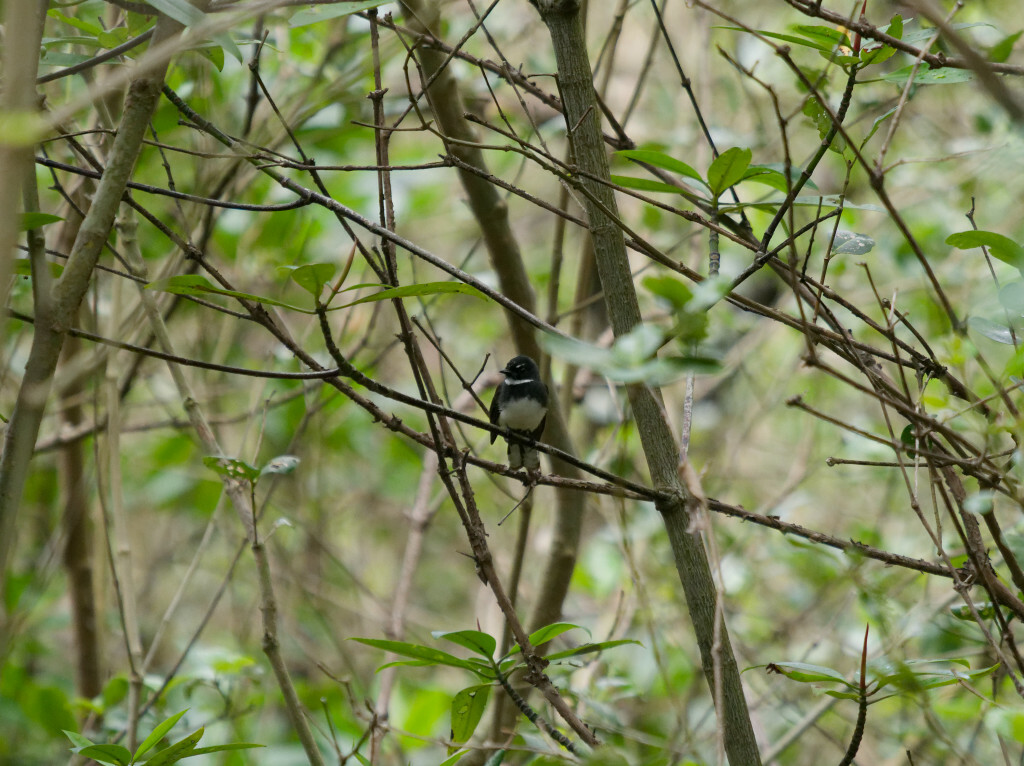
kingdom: Animalia
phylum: Chordata
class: Aves
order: Passeriformes
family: Rhipiduridae
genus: Rhipidura
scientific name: Rhipidura javanica
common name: Pied fantail
